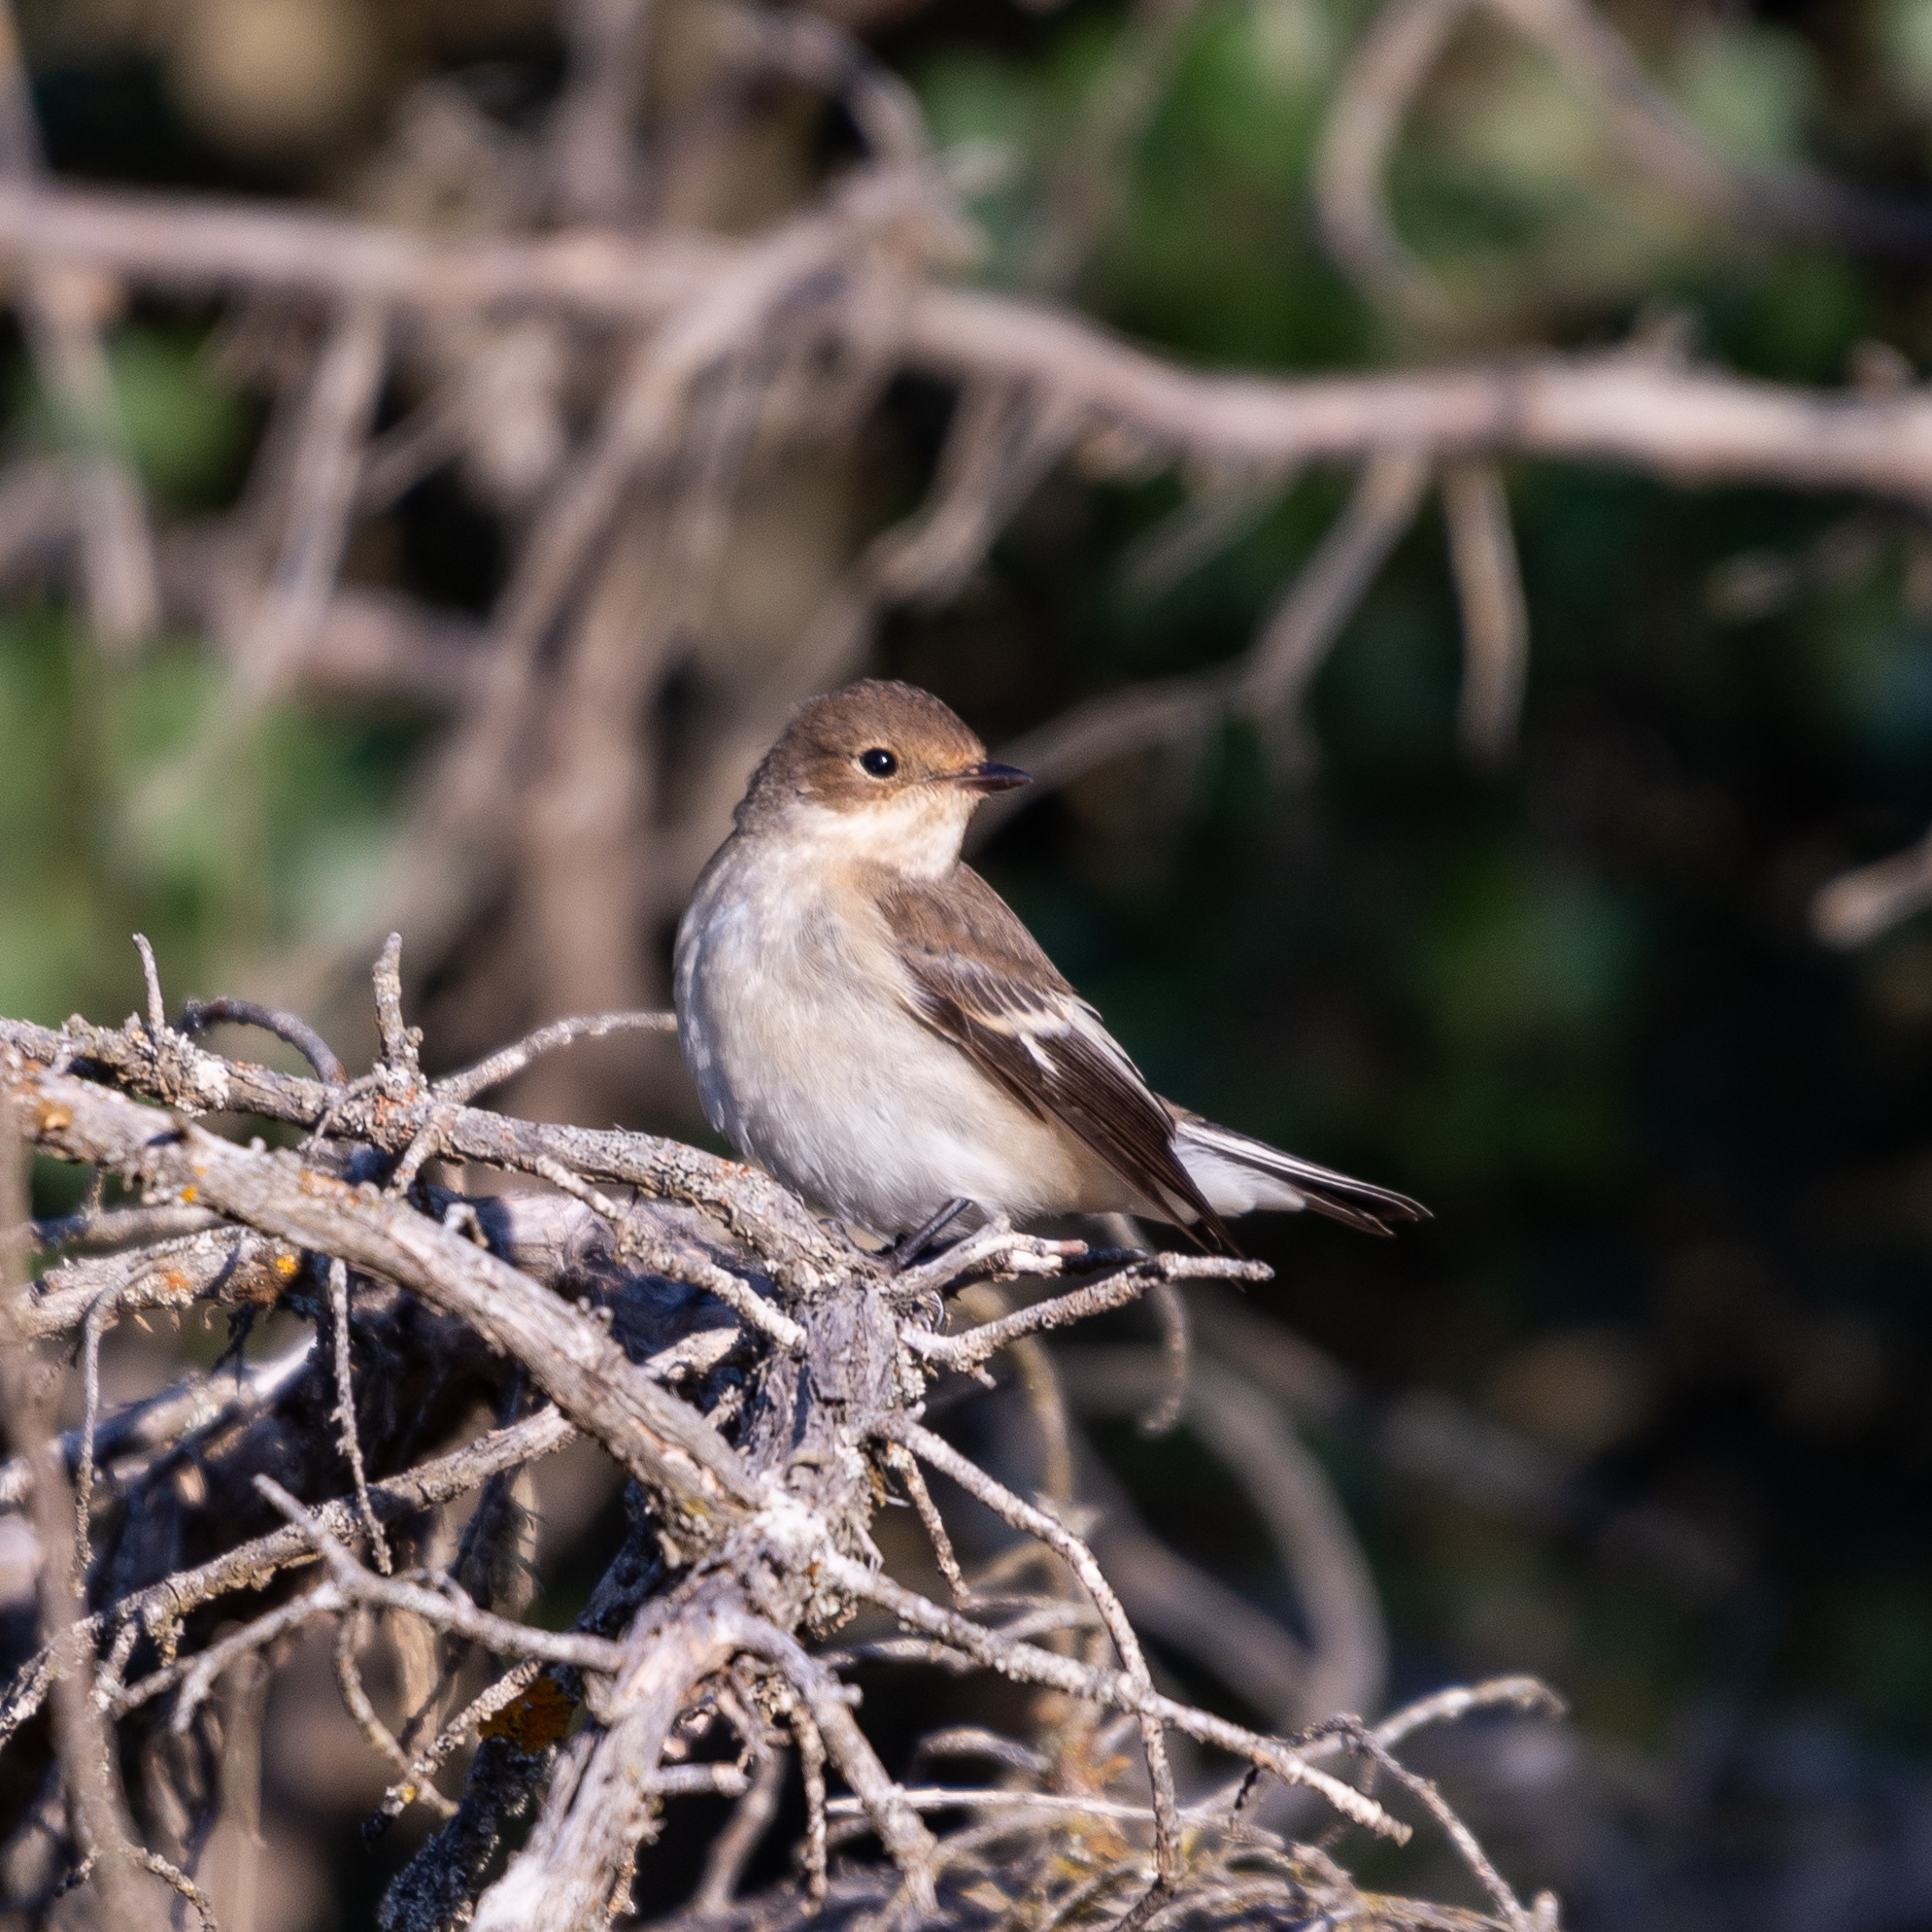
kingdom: Animalia
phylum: Chordata
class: Aves
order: Passeriformes
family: Muscicapidae
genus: Ficedula
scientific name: Ficedula hypoleuca
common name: European pied flycatcher
